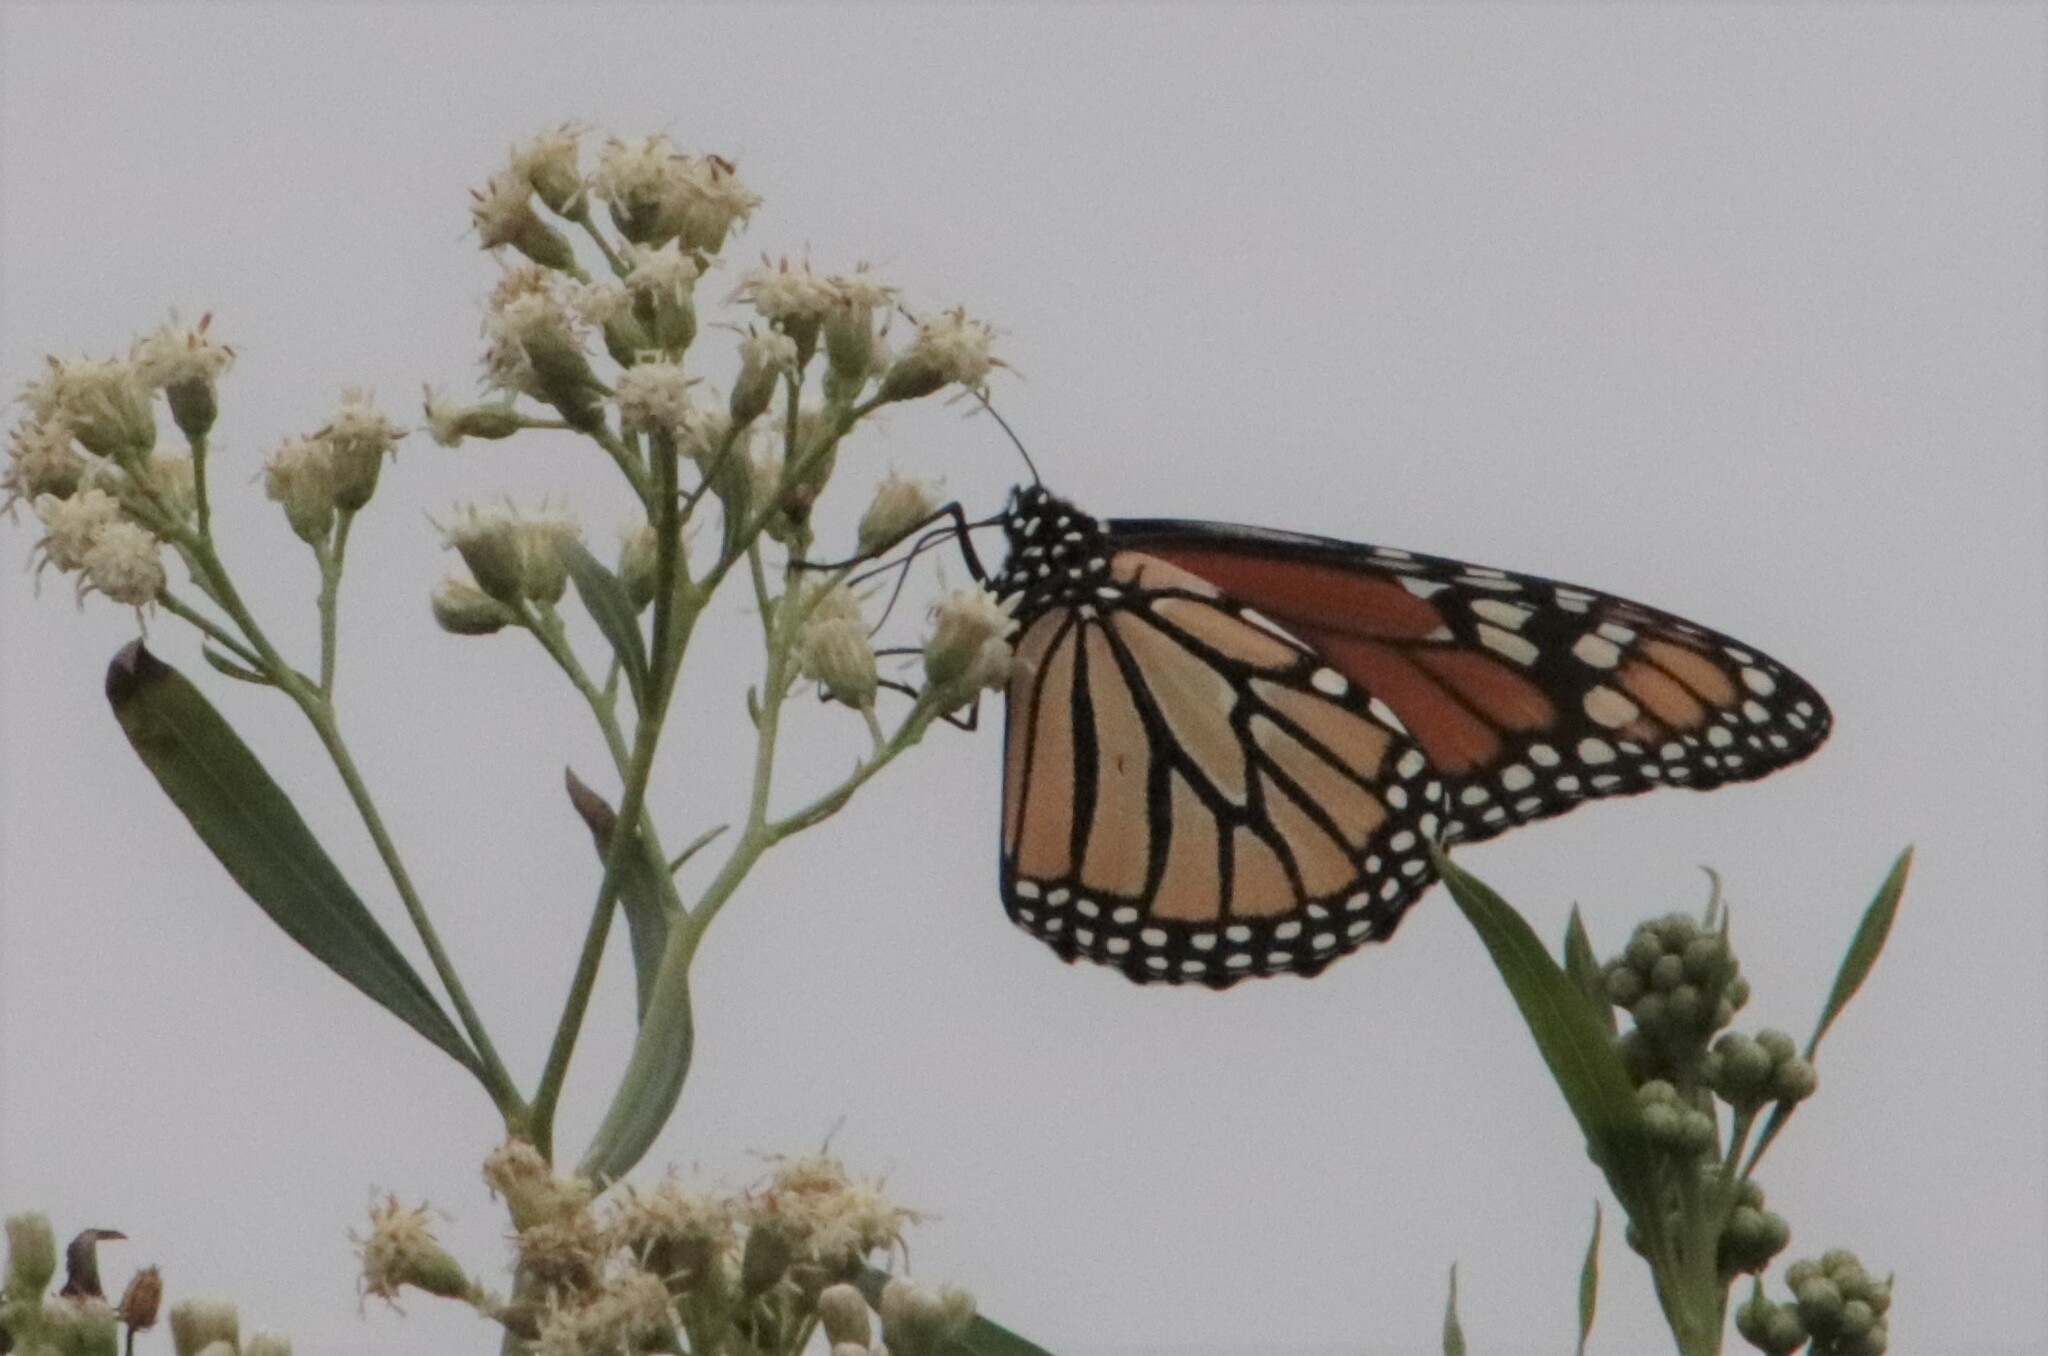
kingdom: Animalia
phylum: Arthropoda
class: Insecta
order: Lepidoptera
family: Nymphalidae
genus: Danaus
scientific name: Danaus plexippus
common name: Monarch
